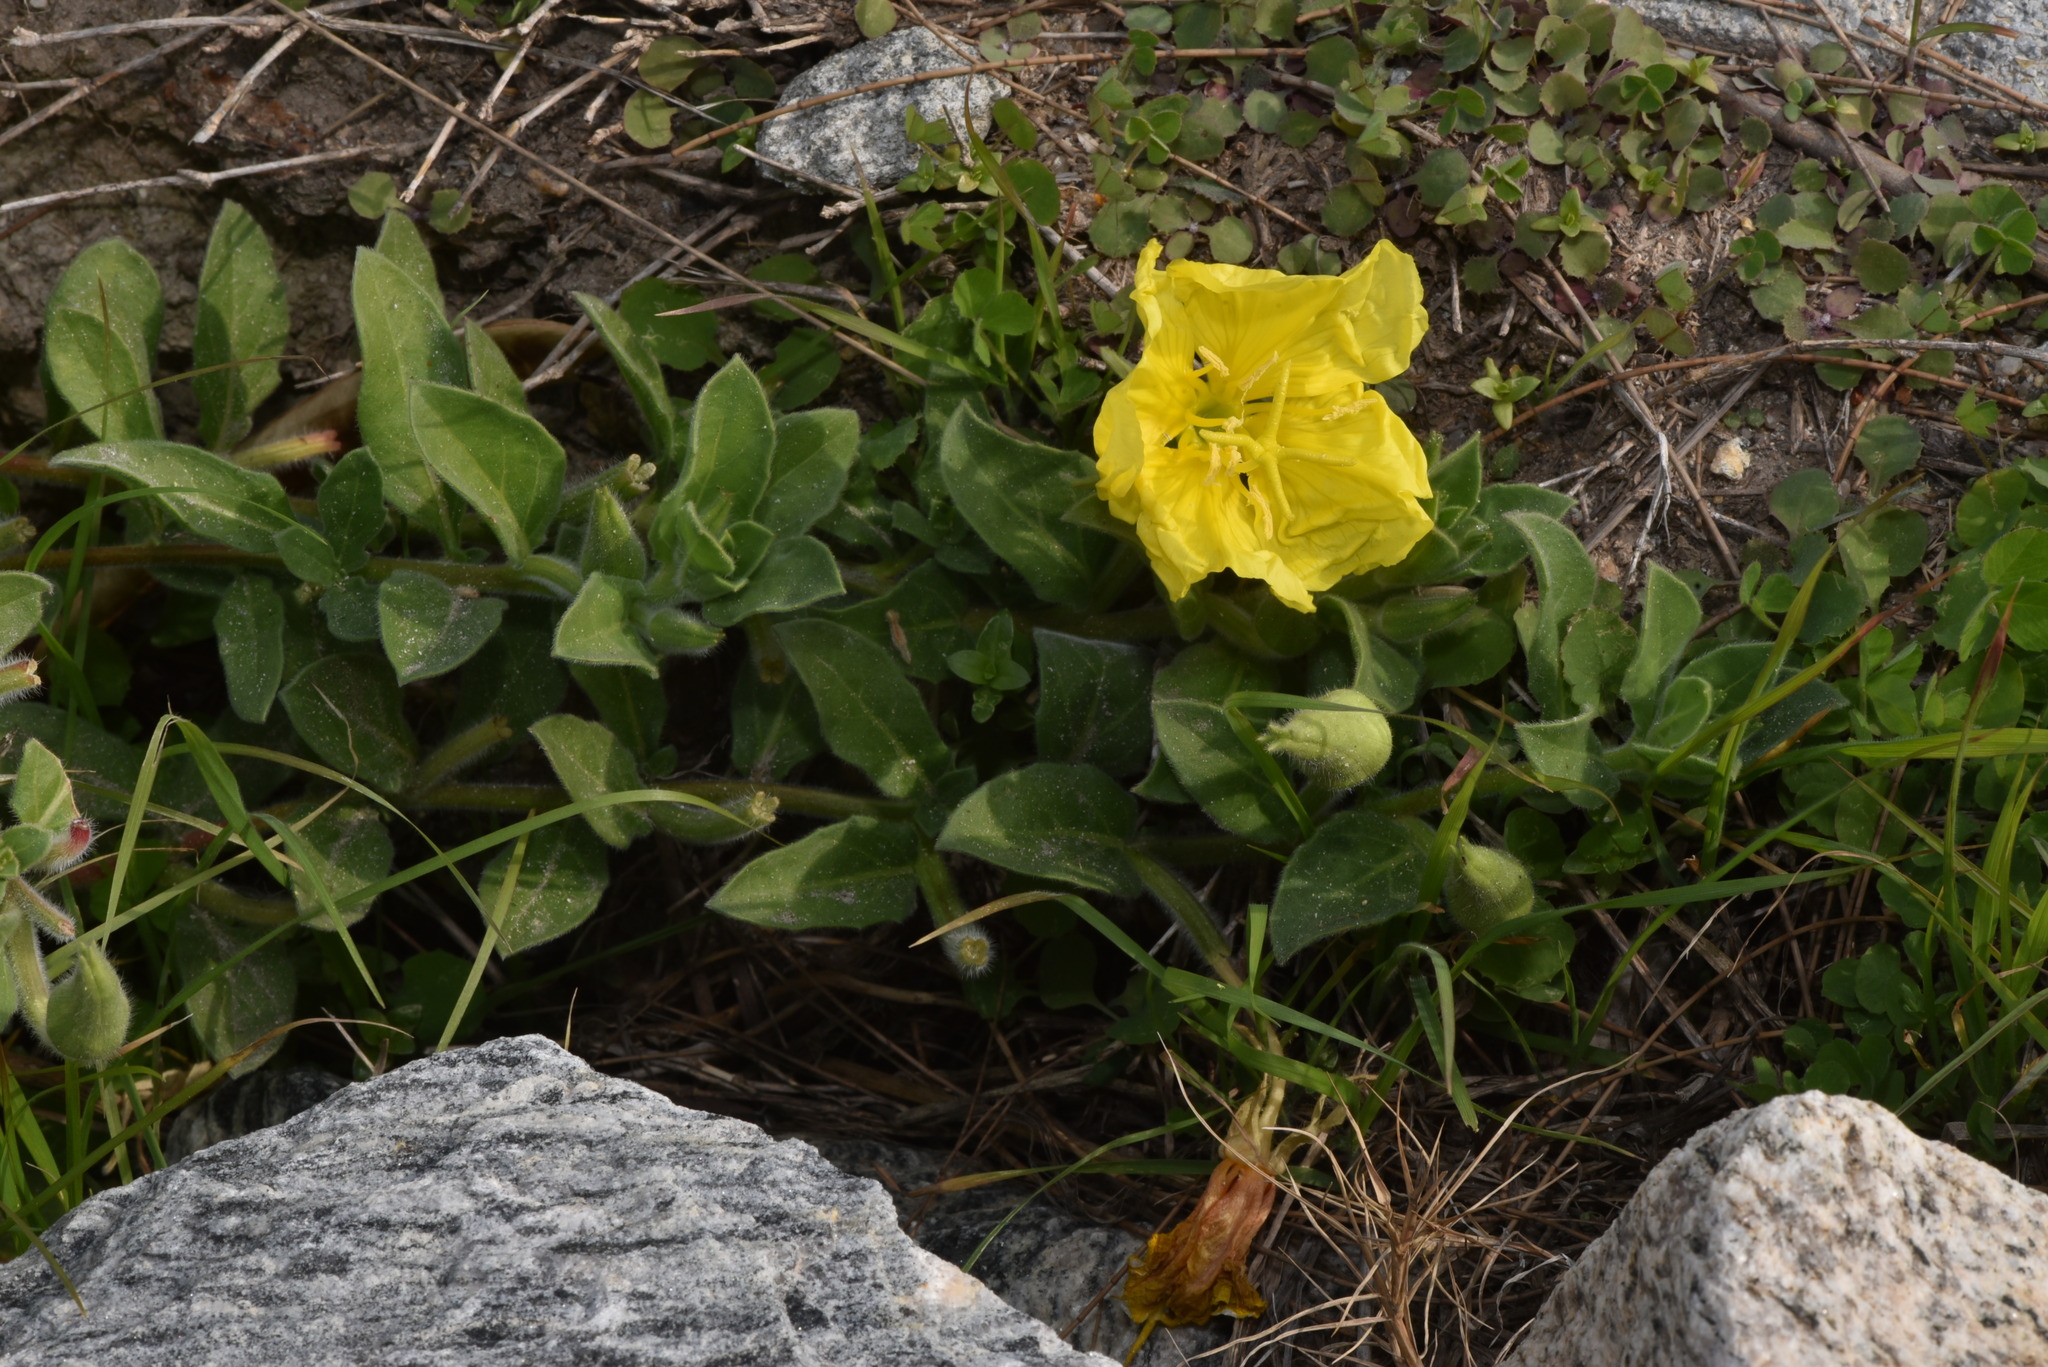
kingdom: Plantae
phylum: Tracheophyta
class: Magnoliopsida
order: Myrtales
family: Onagraceae
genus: Oenothera
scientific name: Oenothera drummondii
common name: Beach evening-primrose
